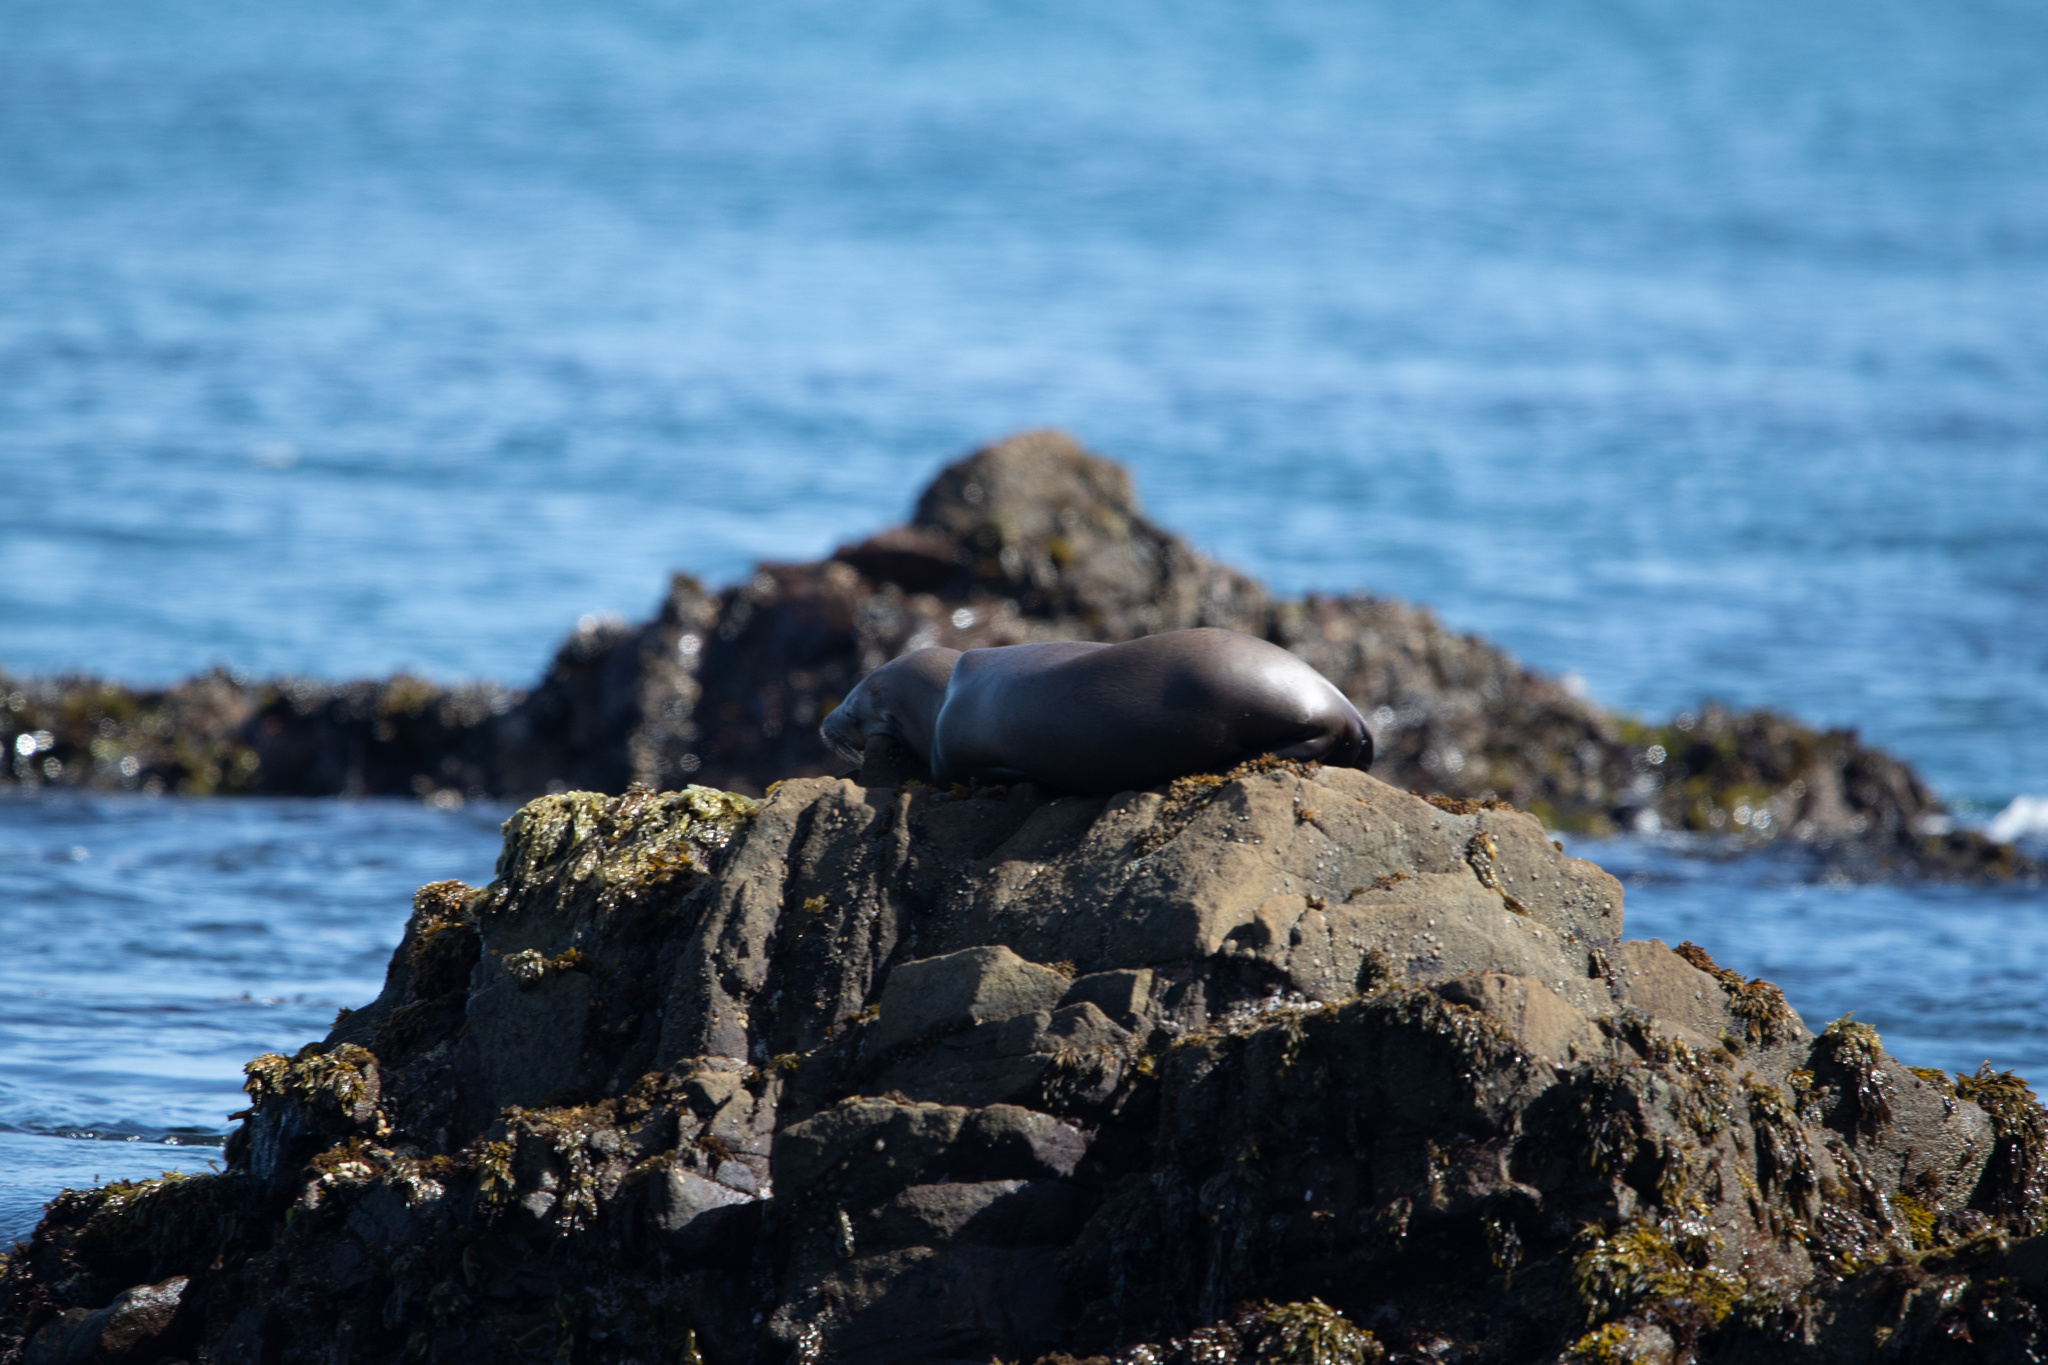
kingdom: Animalia
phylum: Chordata
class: Mammalia
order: Carnivora
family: Otariidae
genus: Zalophus
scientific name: Zalophus californianus
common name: California sea lion
